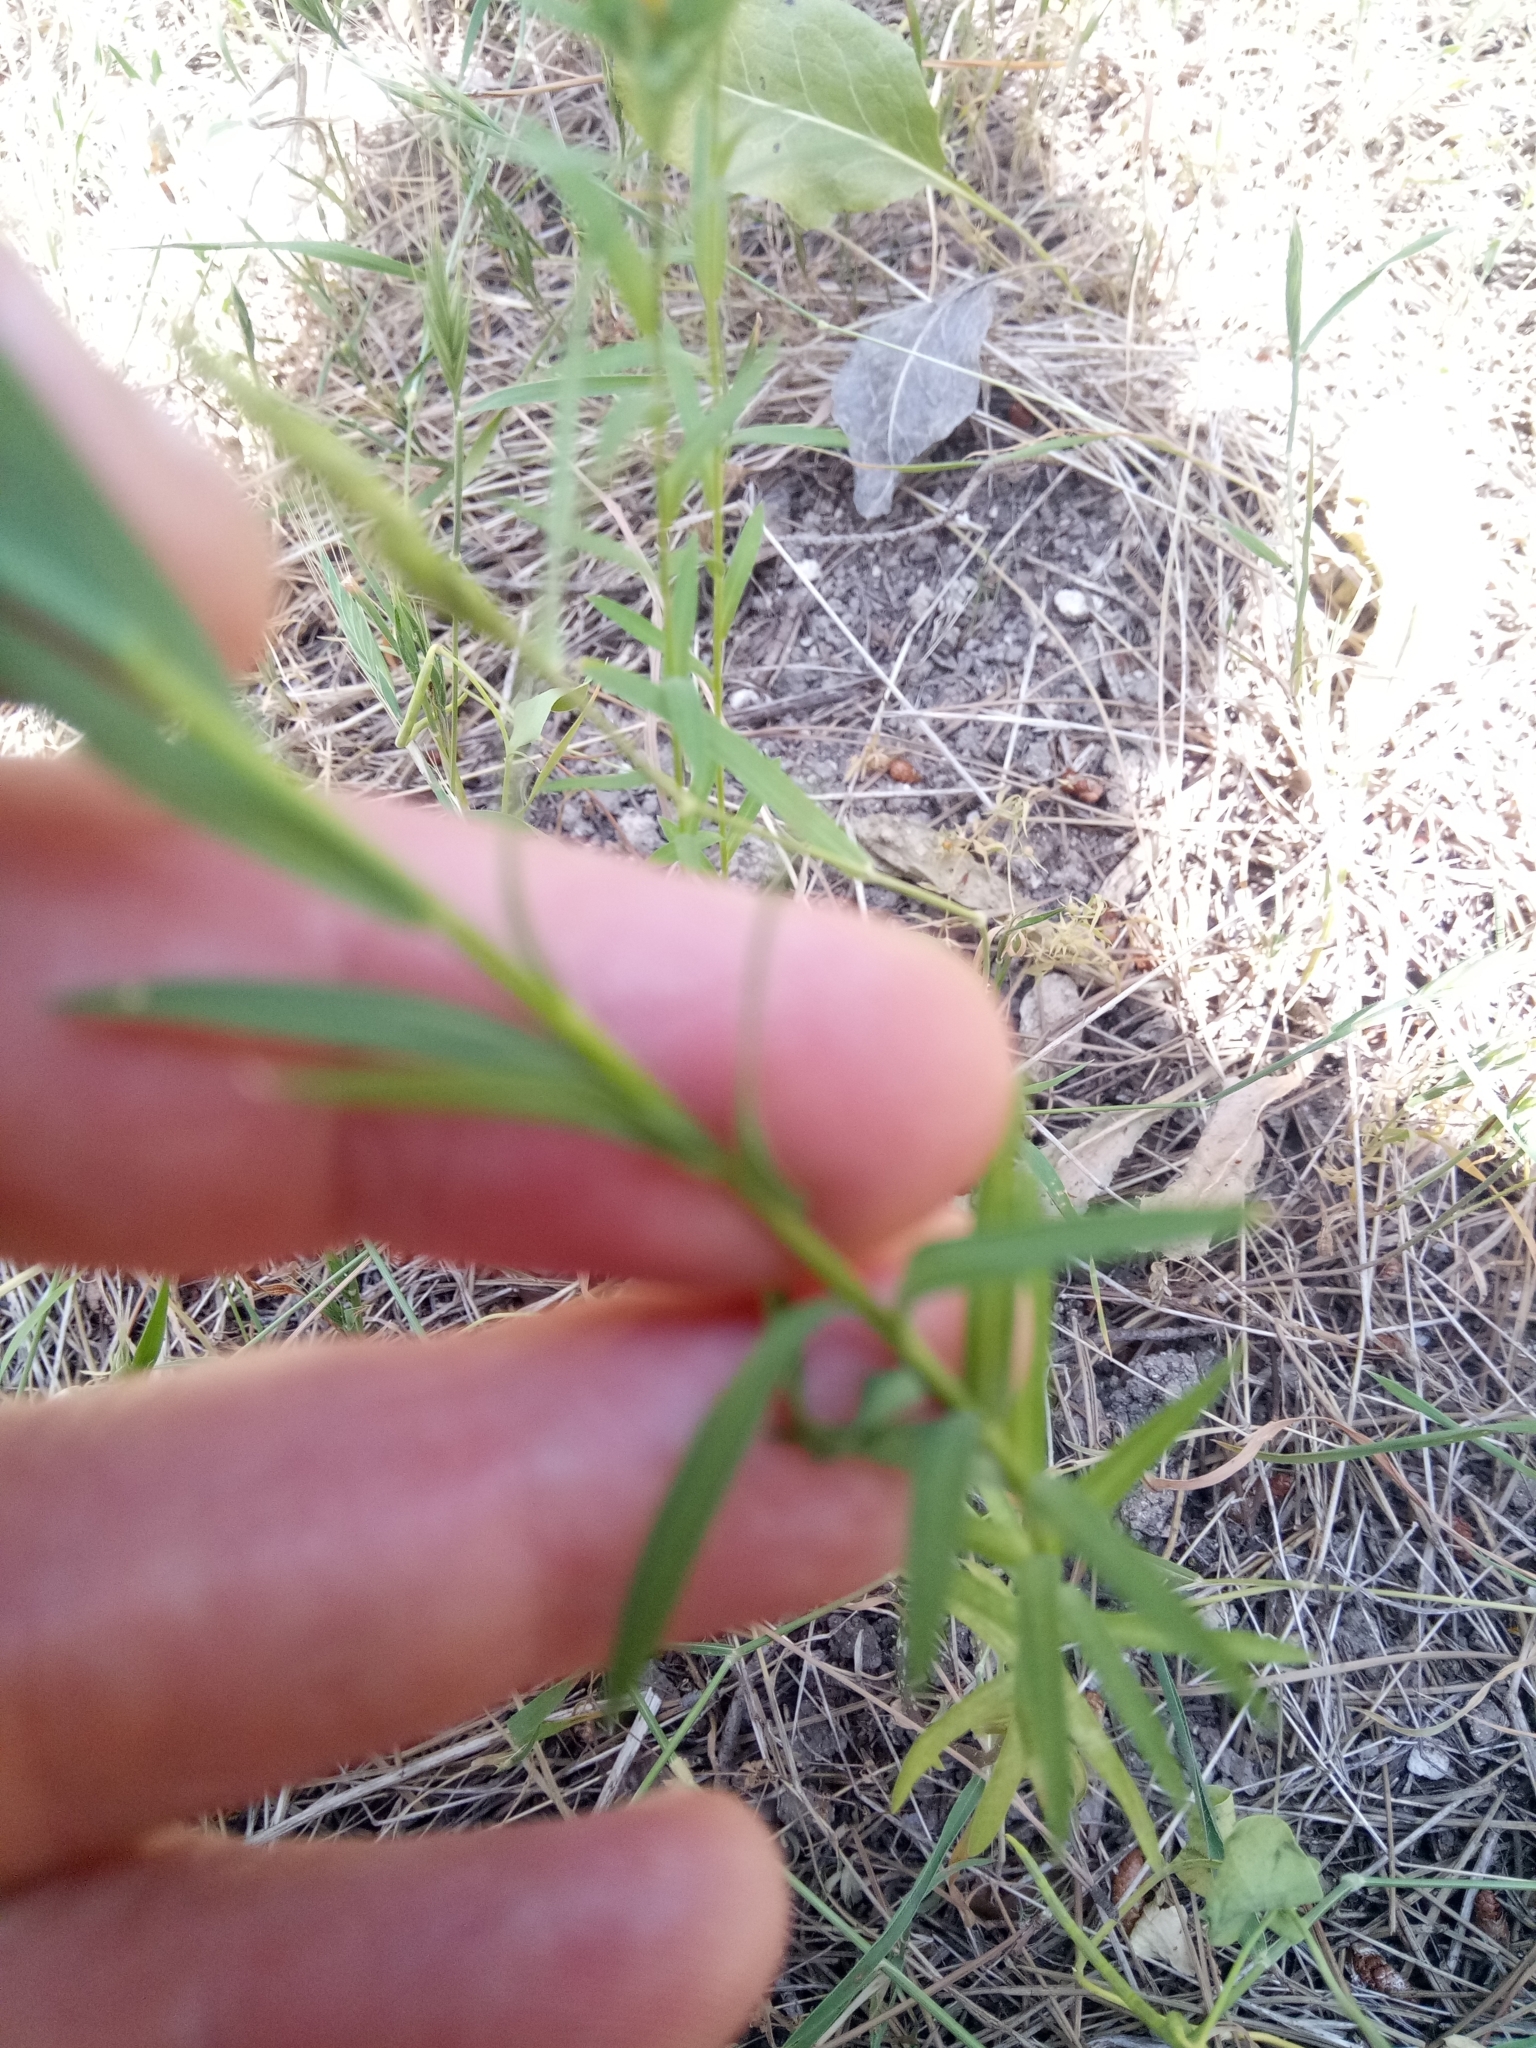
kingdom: Plantae
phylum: Tracheophyta
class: Magnoliopsida
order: Malpighiales
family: Linaceae
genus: Linum
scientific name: Linum strictum
